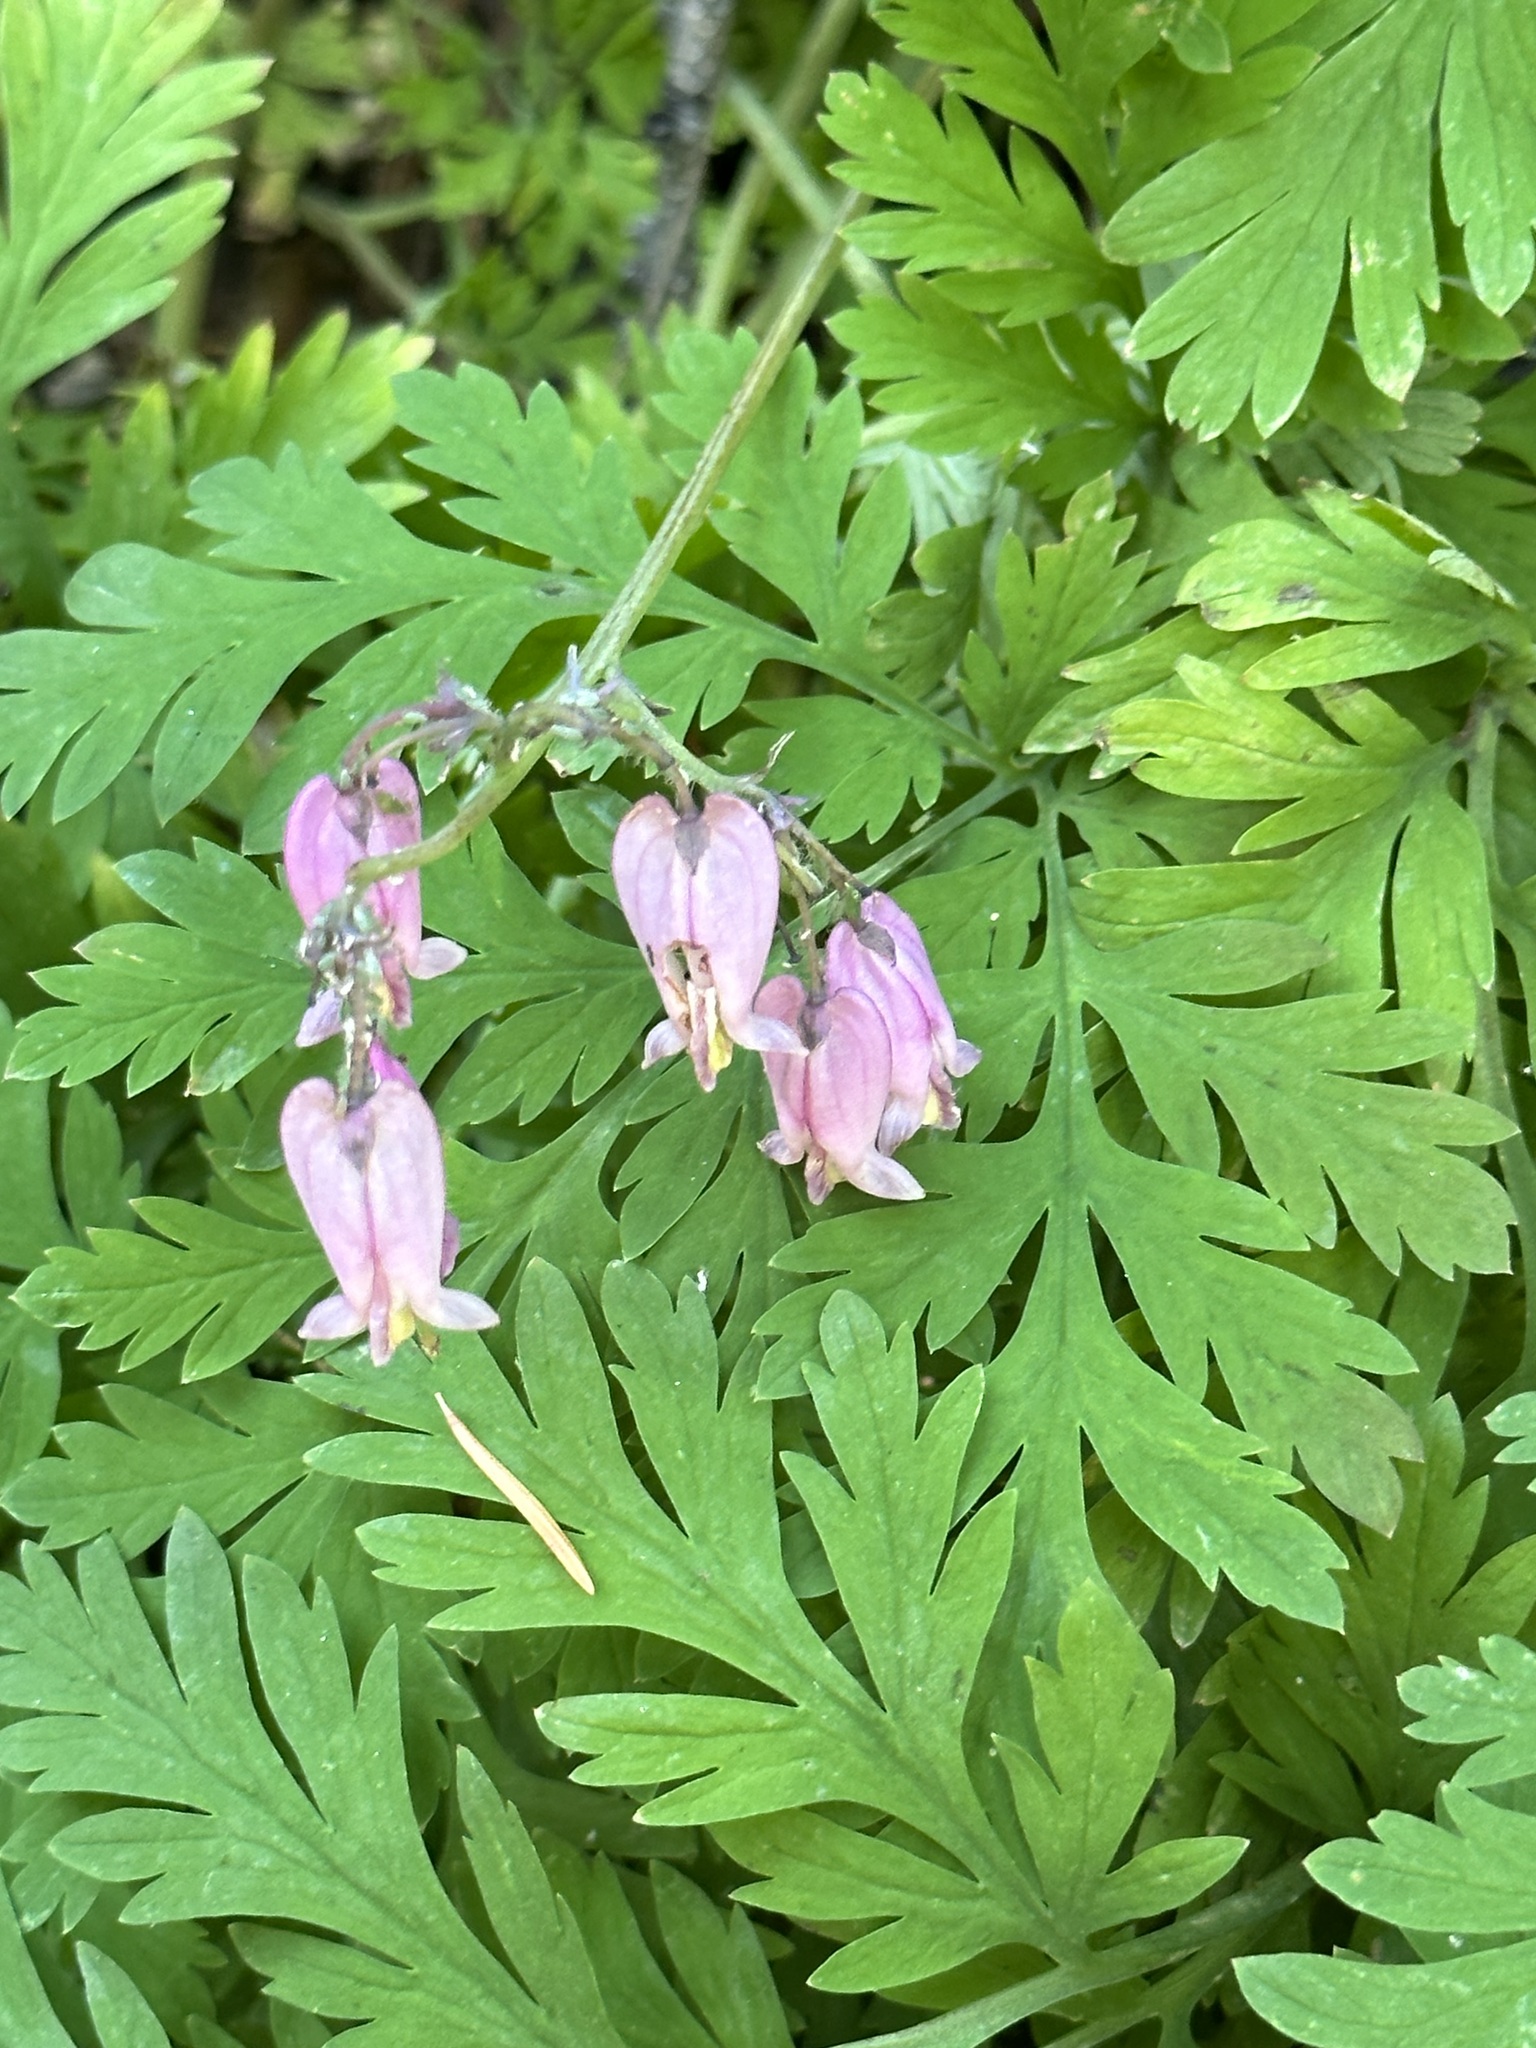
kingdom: Plantae
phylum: Tracheophyta
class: Magnoliopsida
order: Ranunculales
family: Papaveraceae
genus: Dicentra
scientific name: Dicentra formosa
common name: Bleeding-heart
